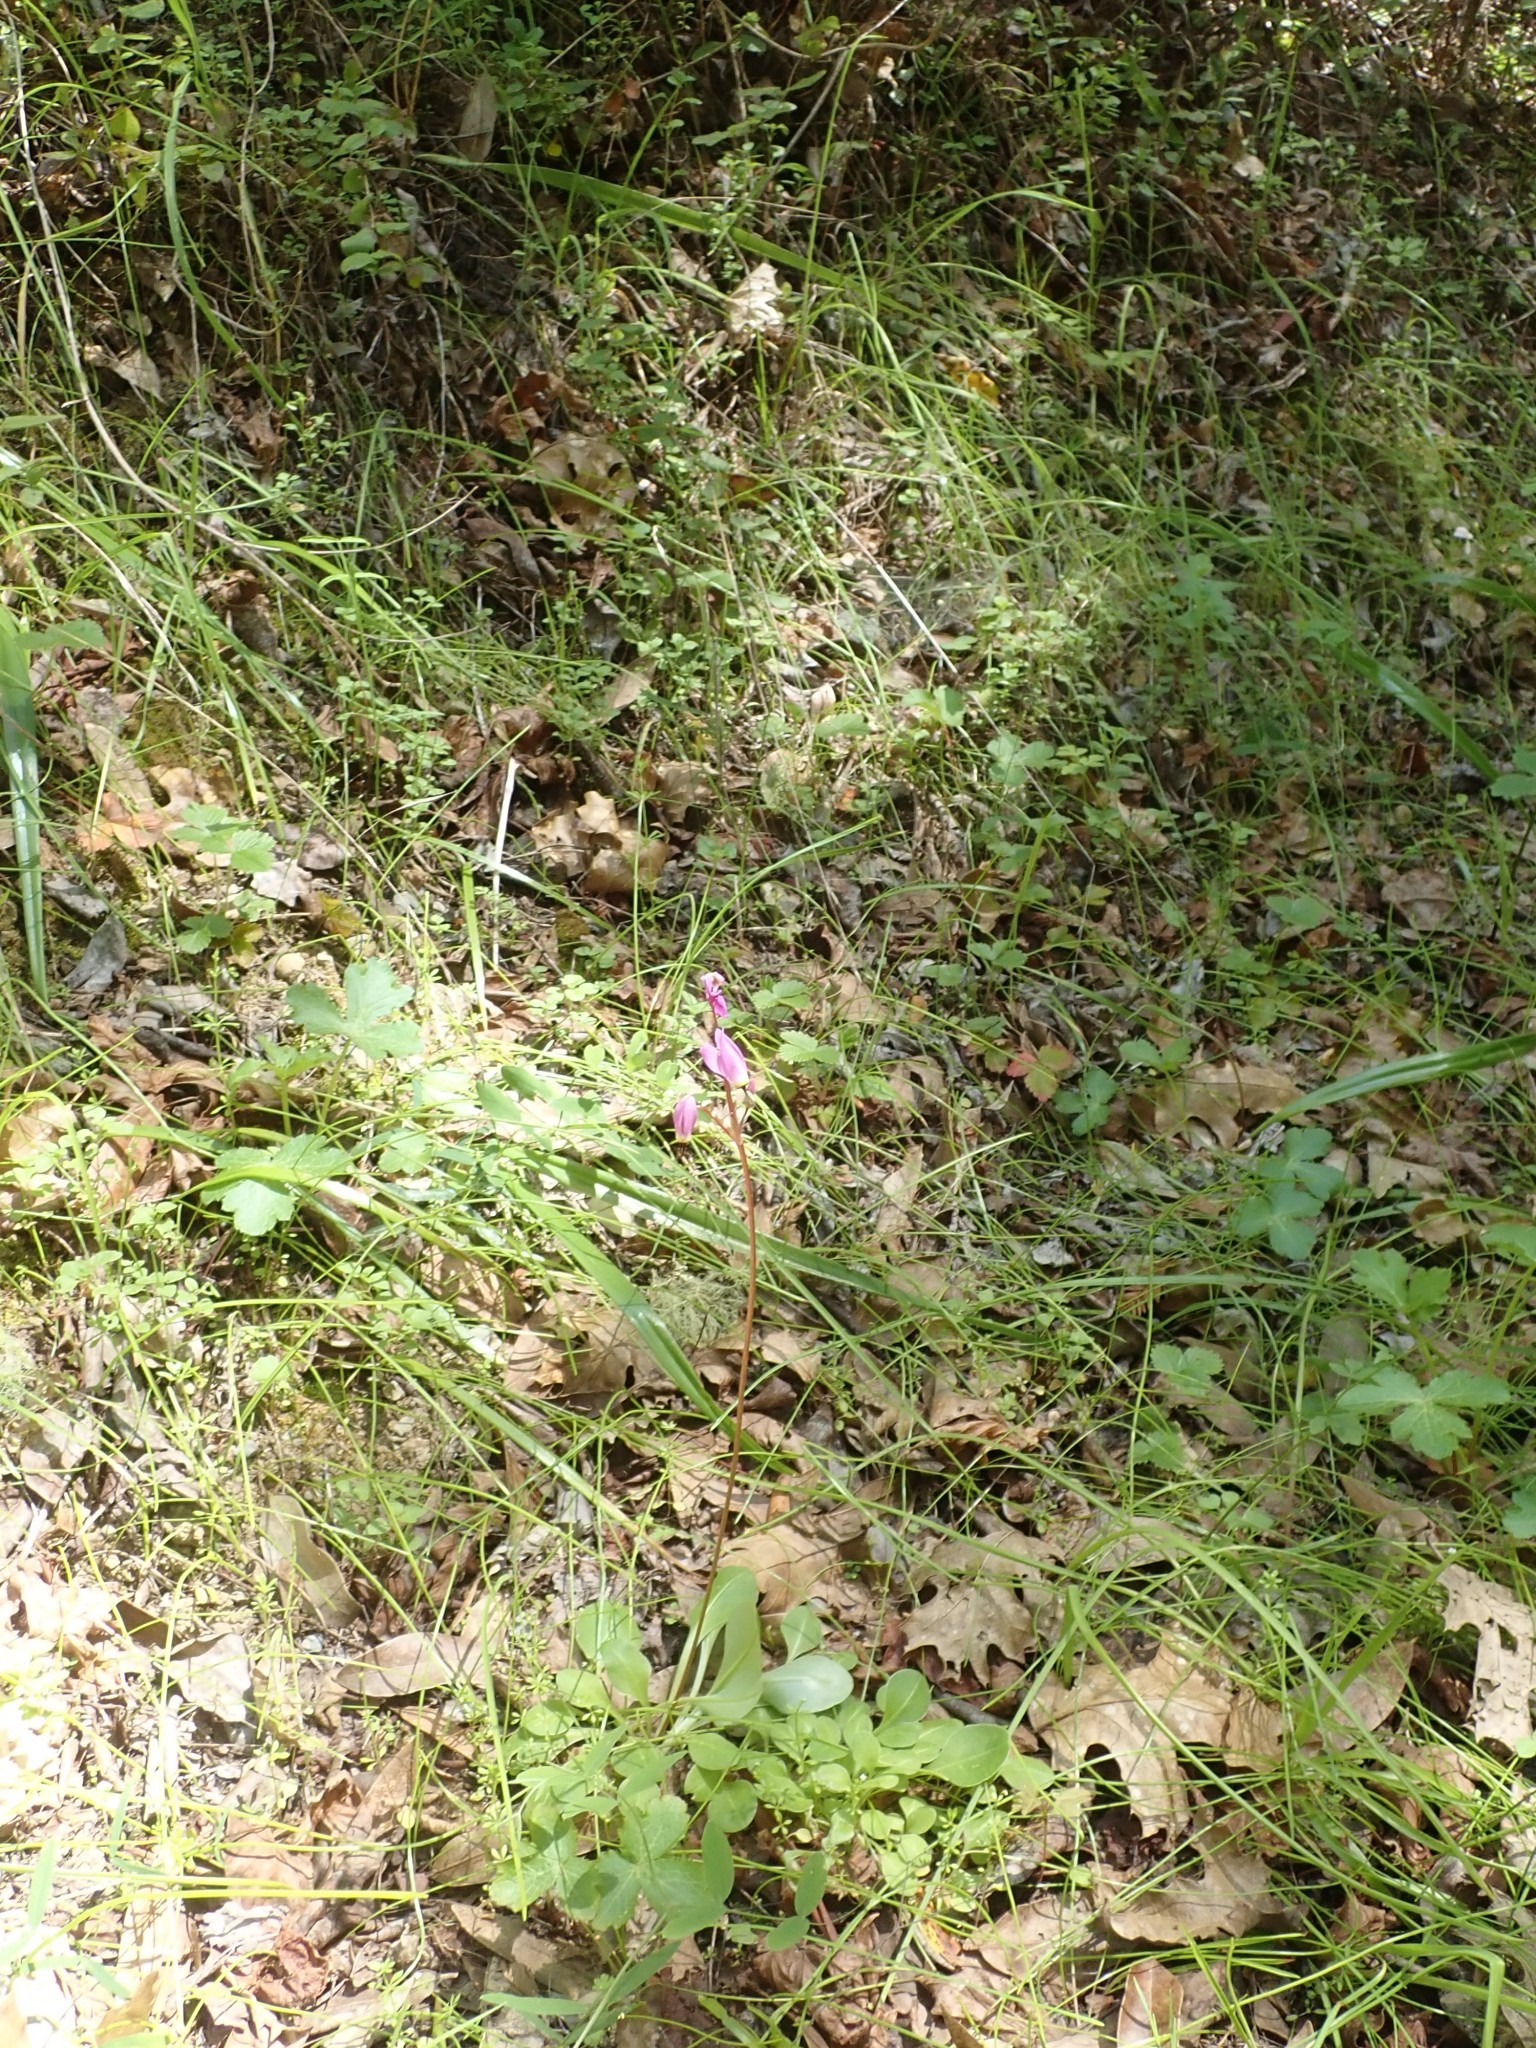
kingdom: Plantae
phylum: Tracheophyta
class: Magnoliopsida
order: Ericales
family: Primulaceae
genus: Dodecatheon
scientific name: Dodecatheon hendersonii
